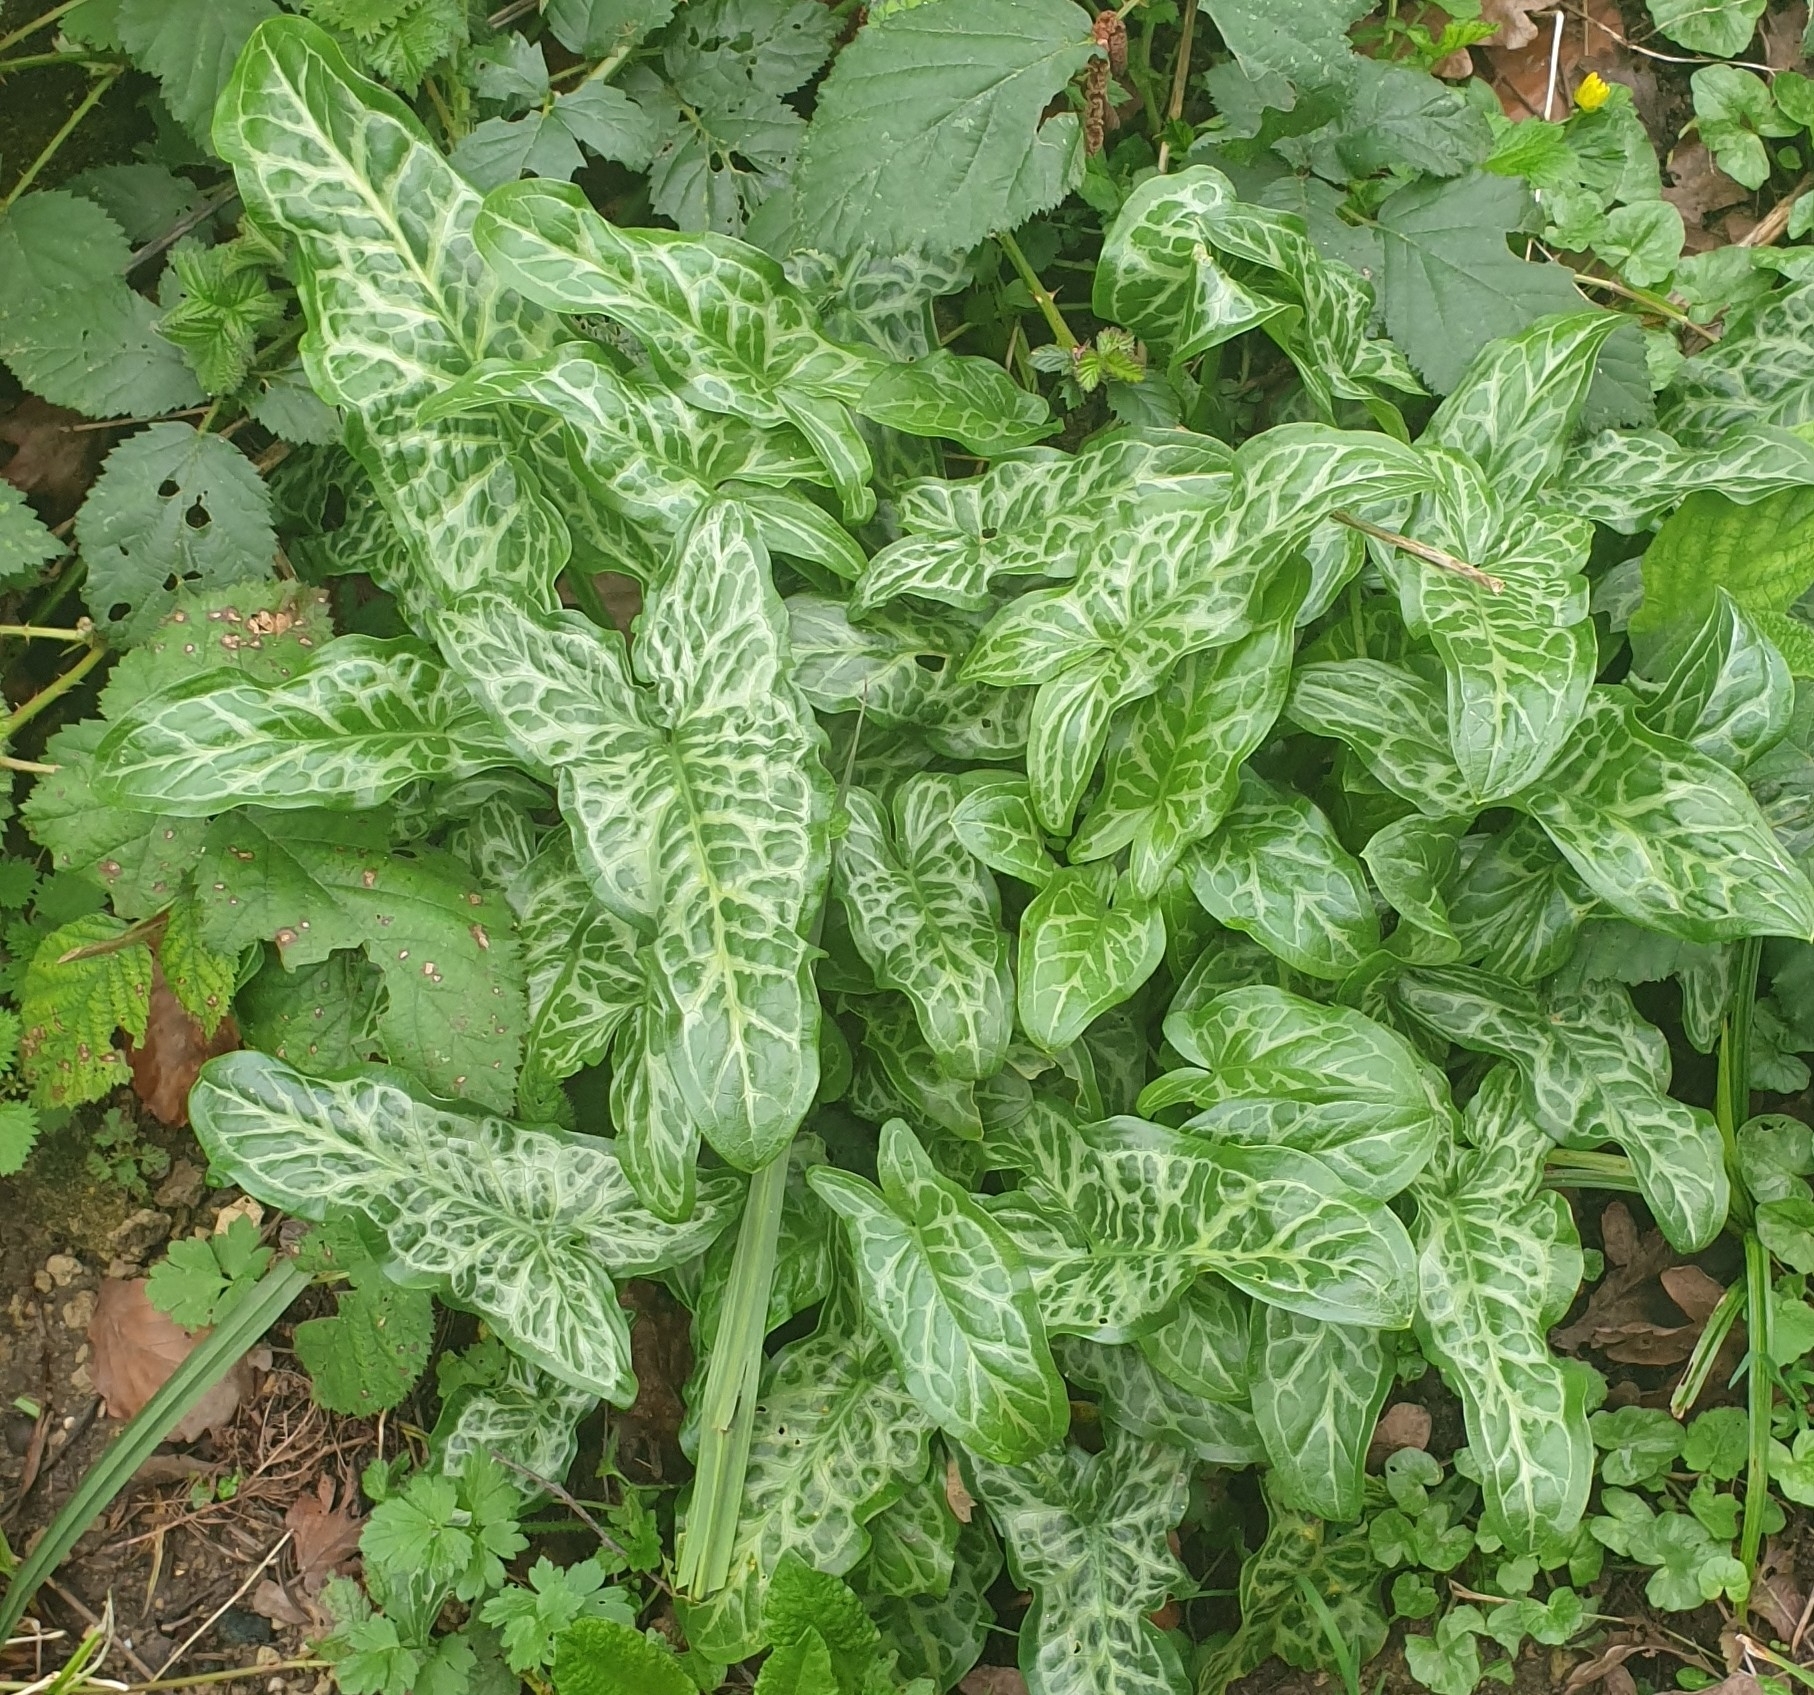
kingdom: Plantae
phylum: Tracheophyta
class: Liliopsida
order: Alismatales
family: Araceae
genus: Arum
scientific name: Arum italicum
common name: Italian lords-and-ladies
